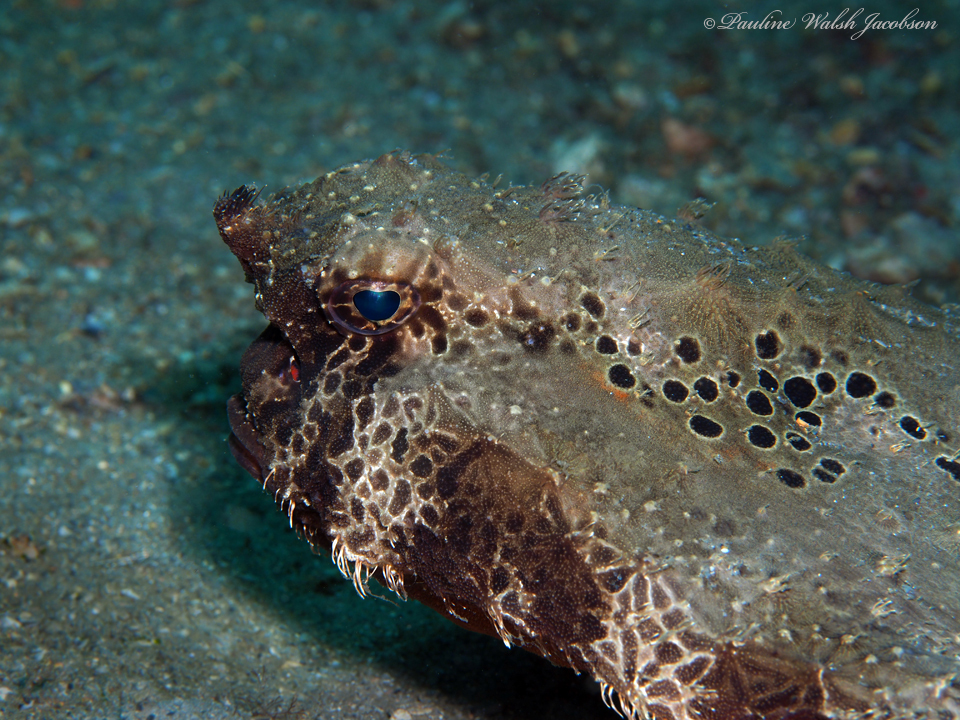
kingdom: Animalia
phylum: Chordata
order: Lophiiformes
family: Ogcocephalidae
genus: Ogcocephalus
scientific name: Ogcocephalus cubifrons
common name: Polka-dot batfish
